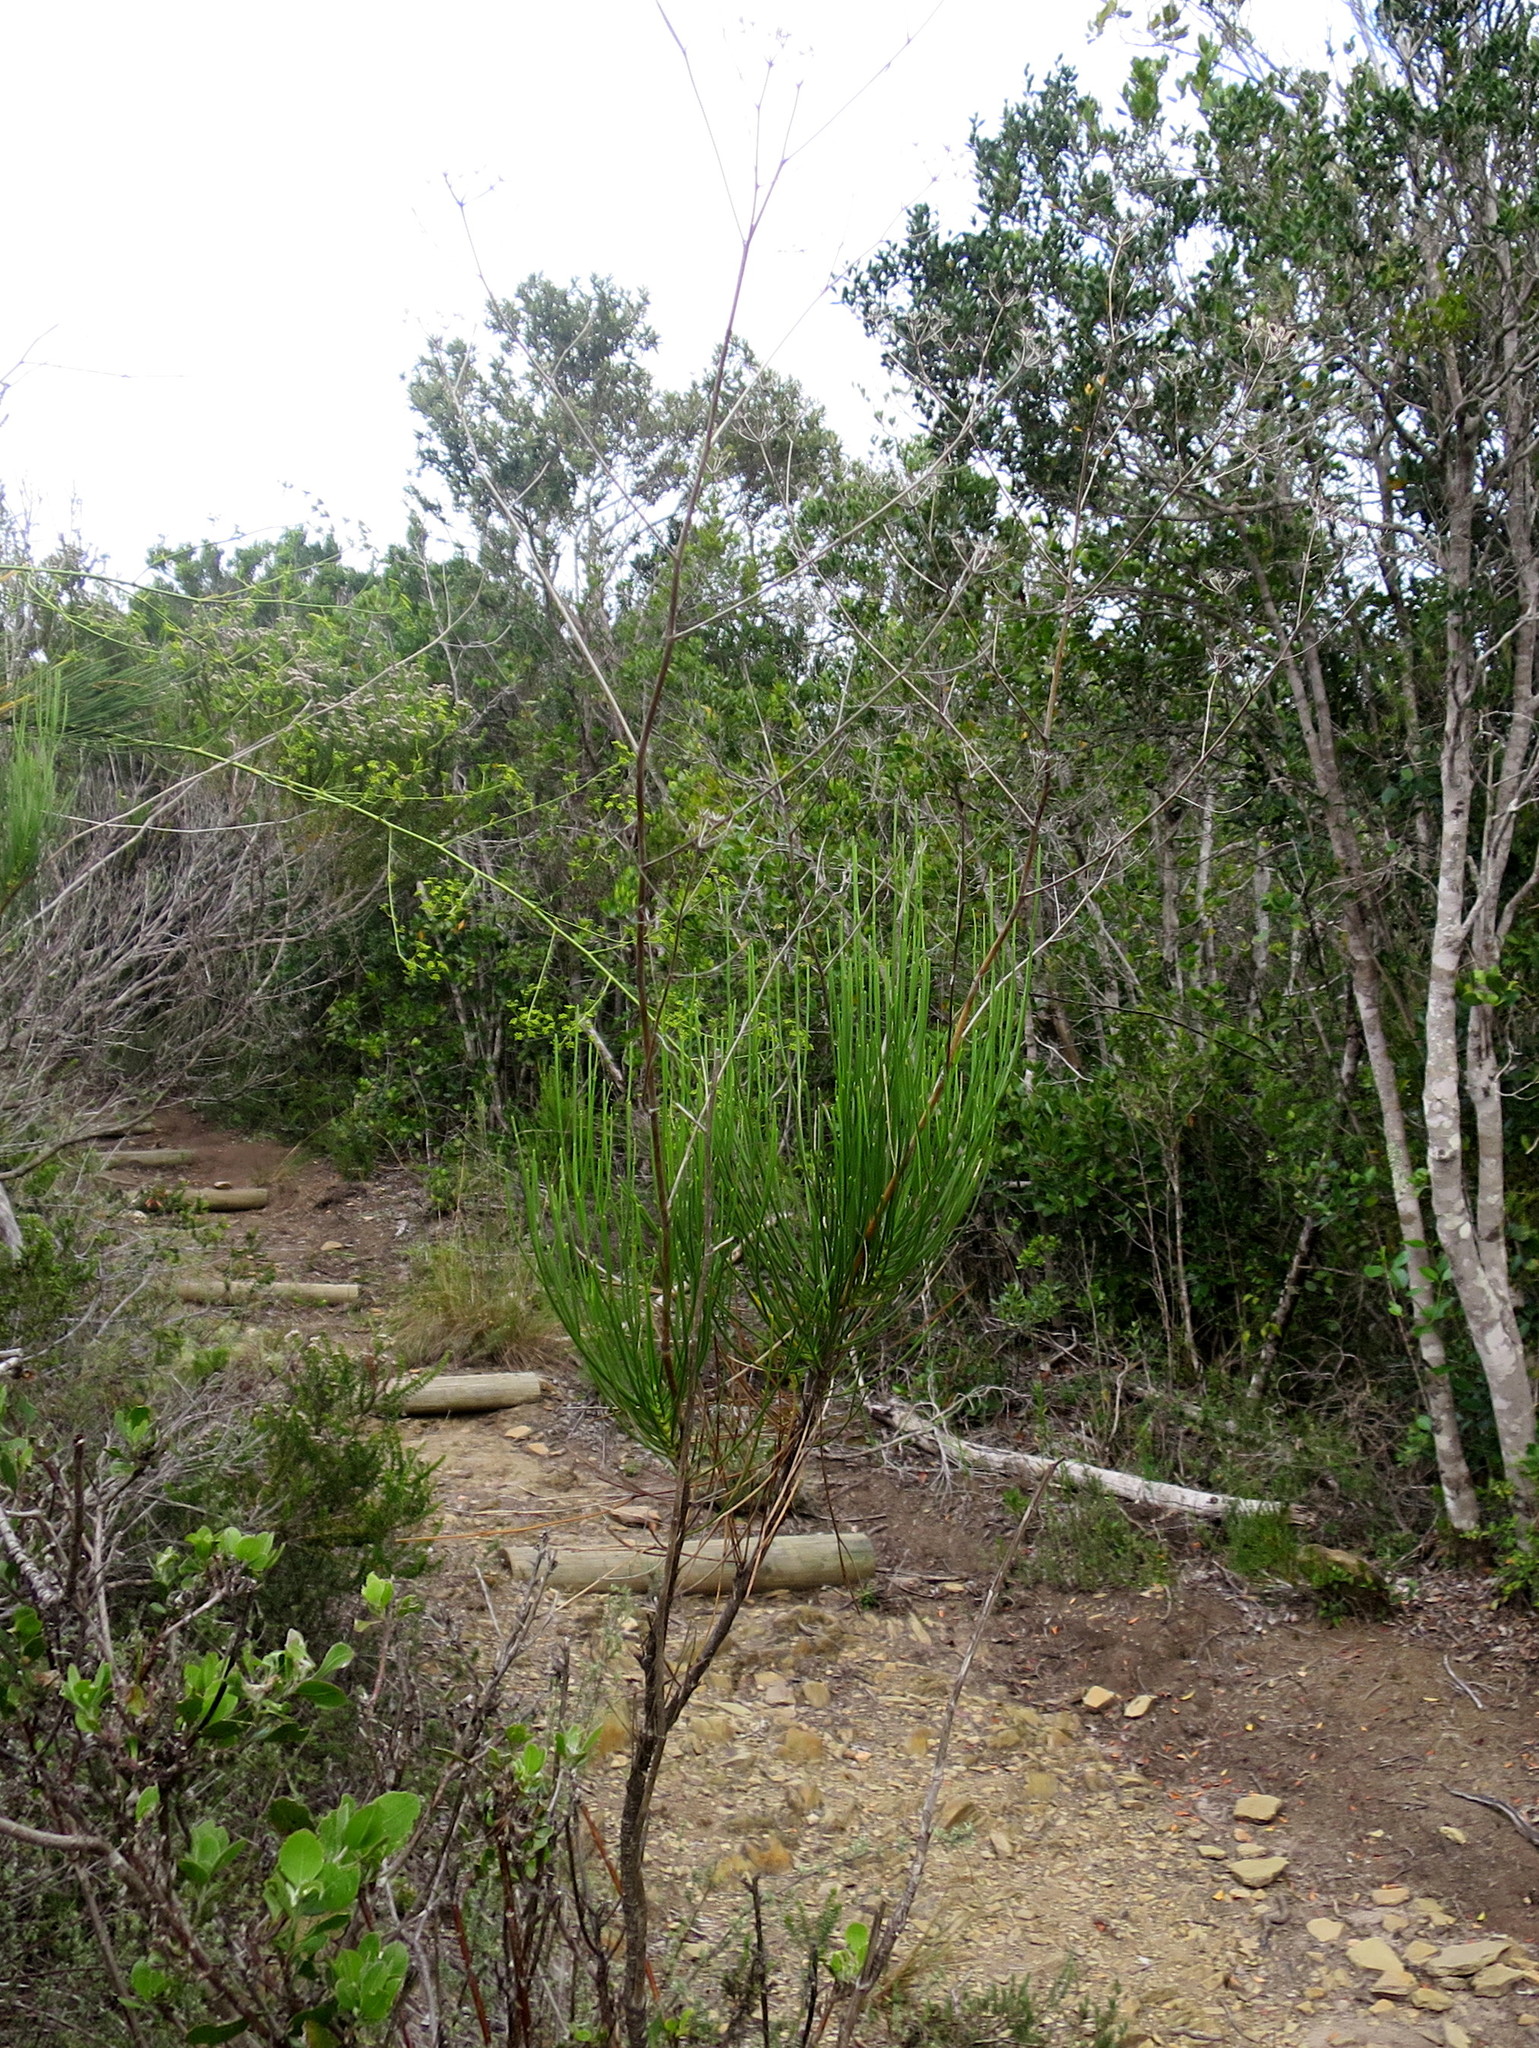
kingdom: Plantae
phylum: Tracheophyta
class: Magnoliopsida
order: Apiales
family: Apiaceae
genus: Anginon
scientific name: Anginon difforme
